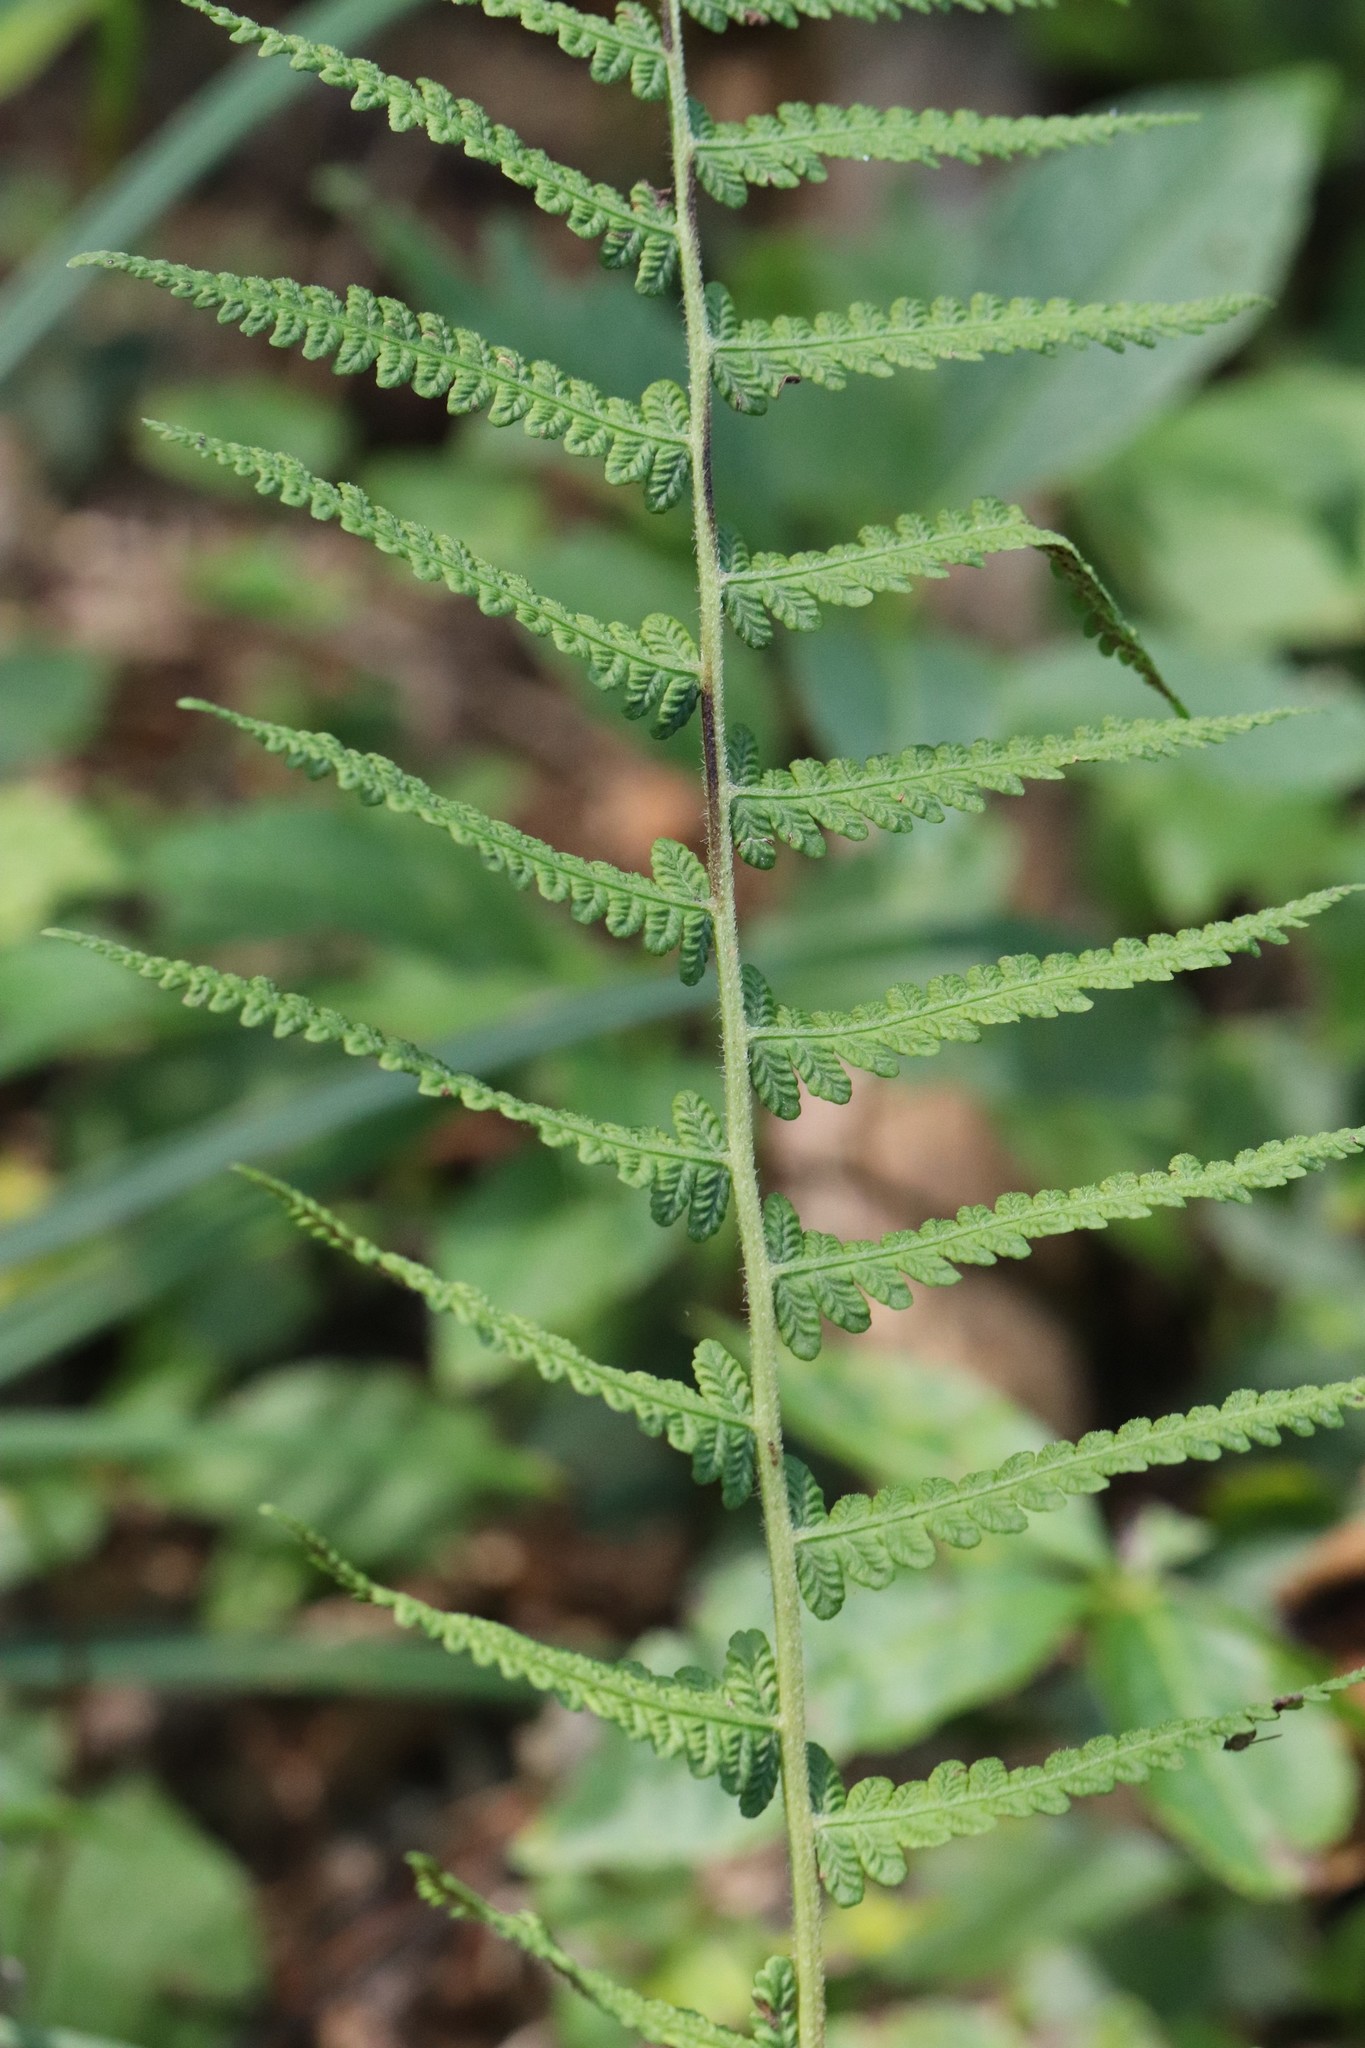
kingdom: Plantae
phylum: Tracheophyta
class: Polypodiopsida
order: Polypodiales
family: Athyriaceae
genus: Deparia
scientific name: Deparia pycnosora
